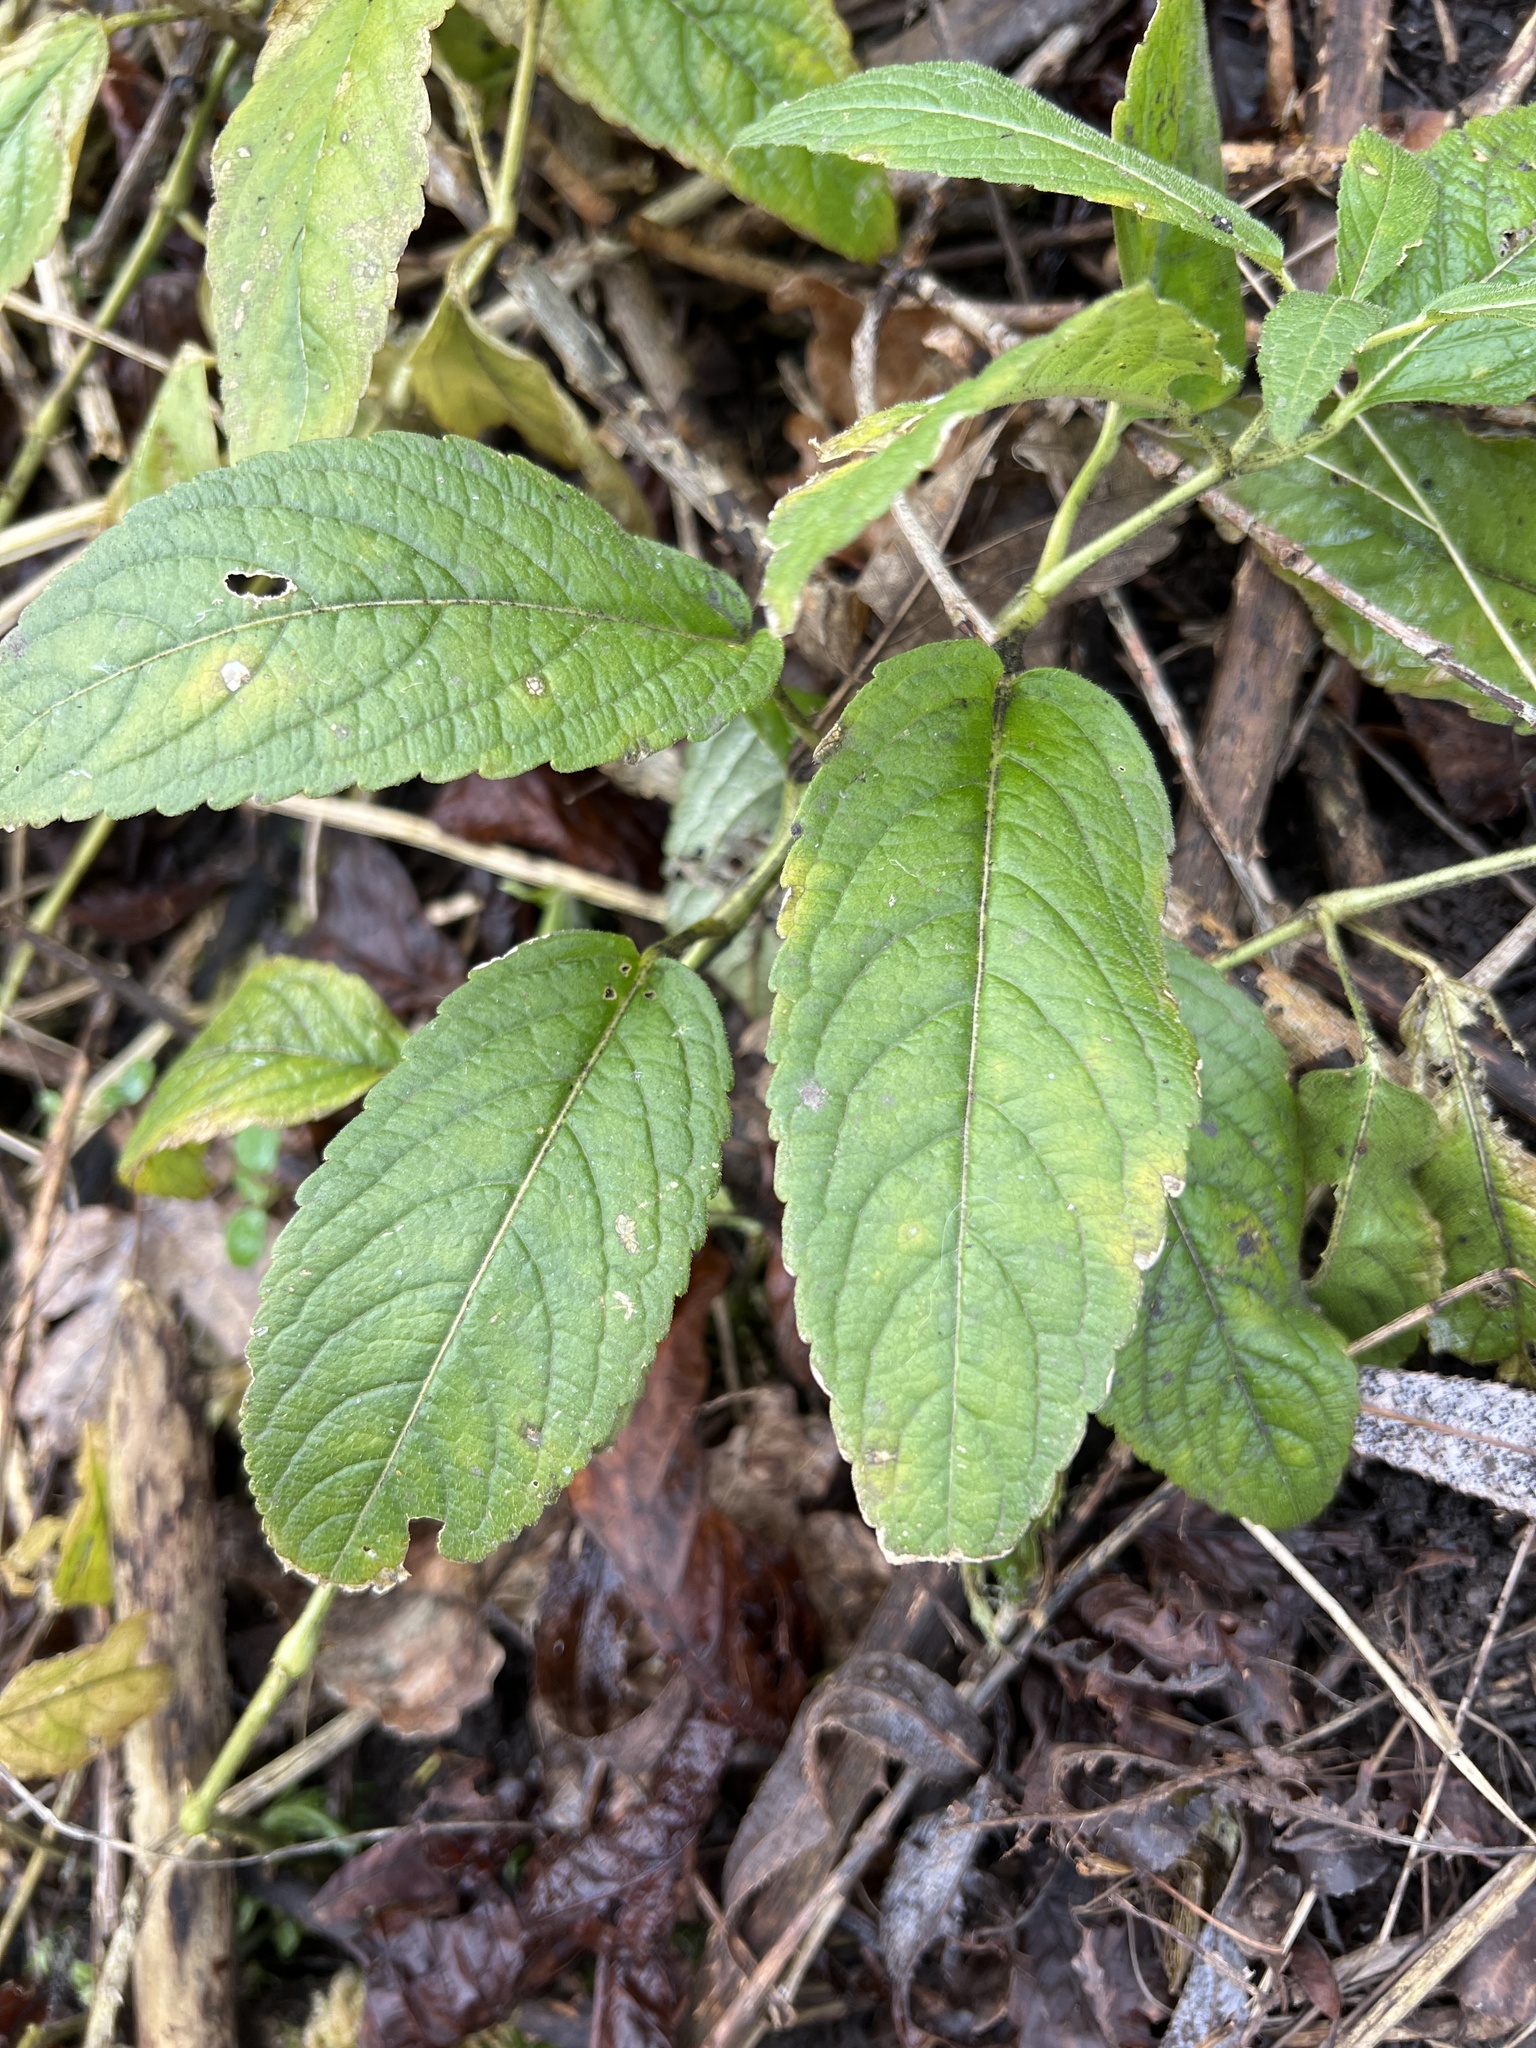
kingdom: Plantae
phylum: Tracheophyta
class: Magnoliopsida
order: Malpighiales
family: Euphorbiaceae
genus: Mercurialis
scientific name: Mercurialis perennis
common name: Dog mercury
